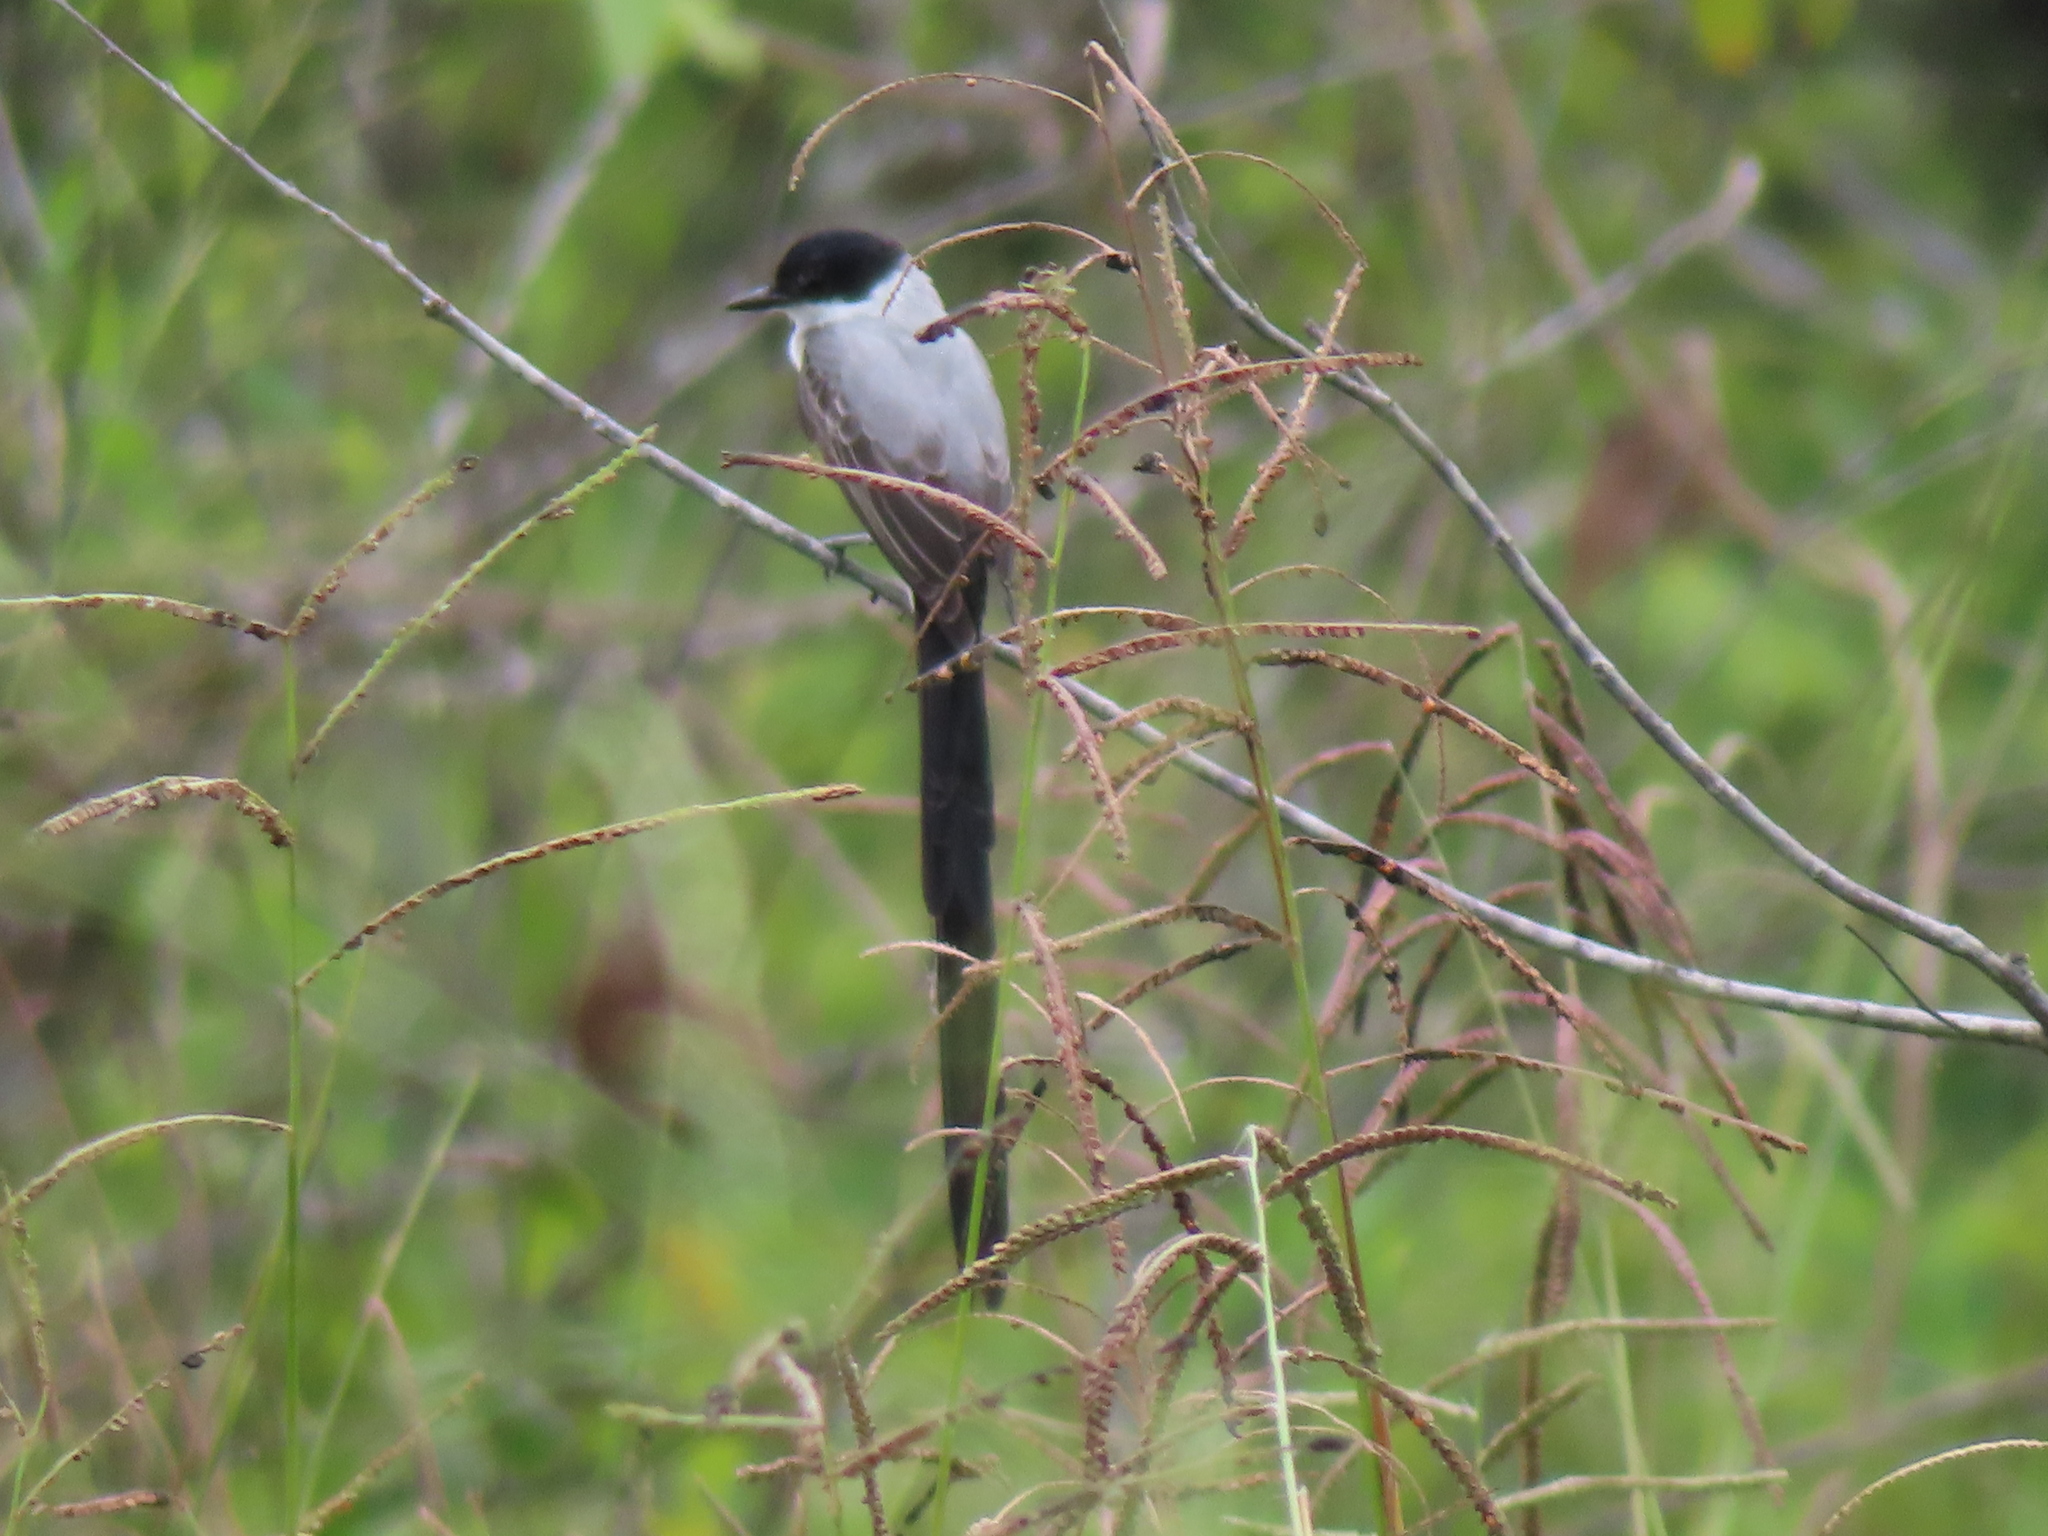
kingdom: Animalia
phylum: Chordata
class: Aves
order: Passeriformes
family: Tyrannidae
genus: Tyrannus
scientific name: Tyrannus savana
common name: Fork-tailed flycatcher
